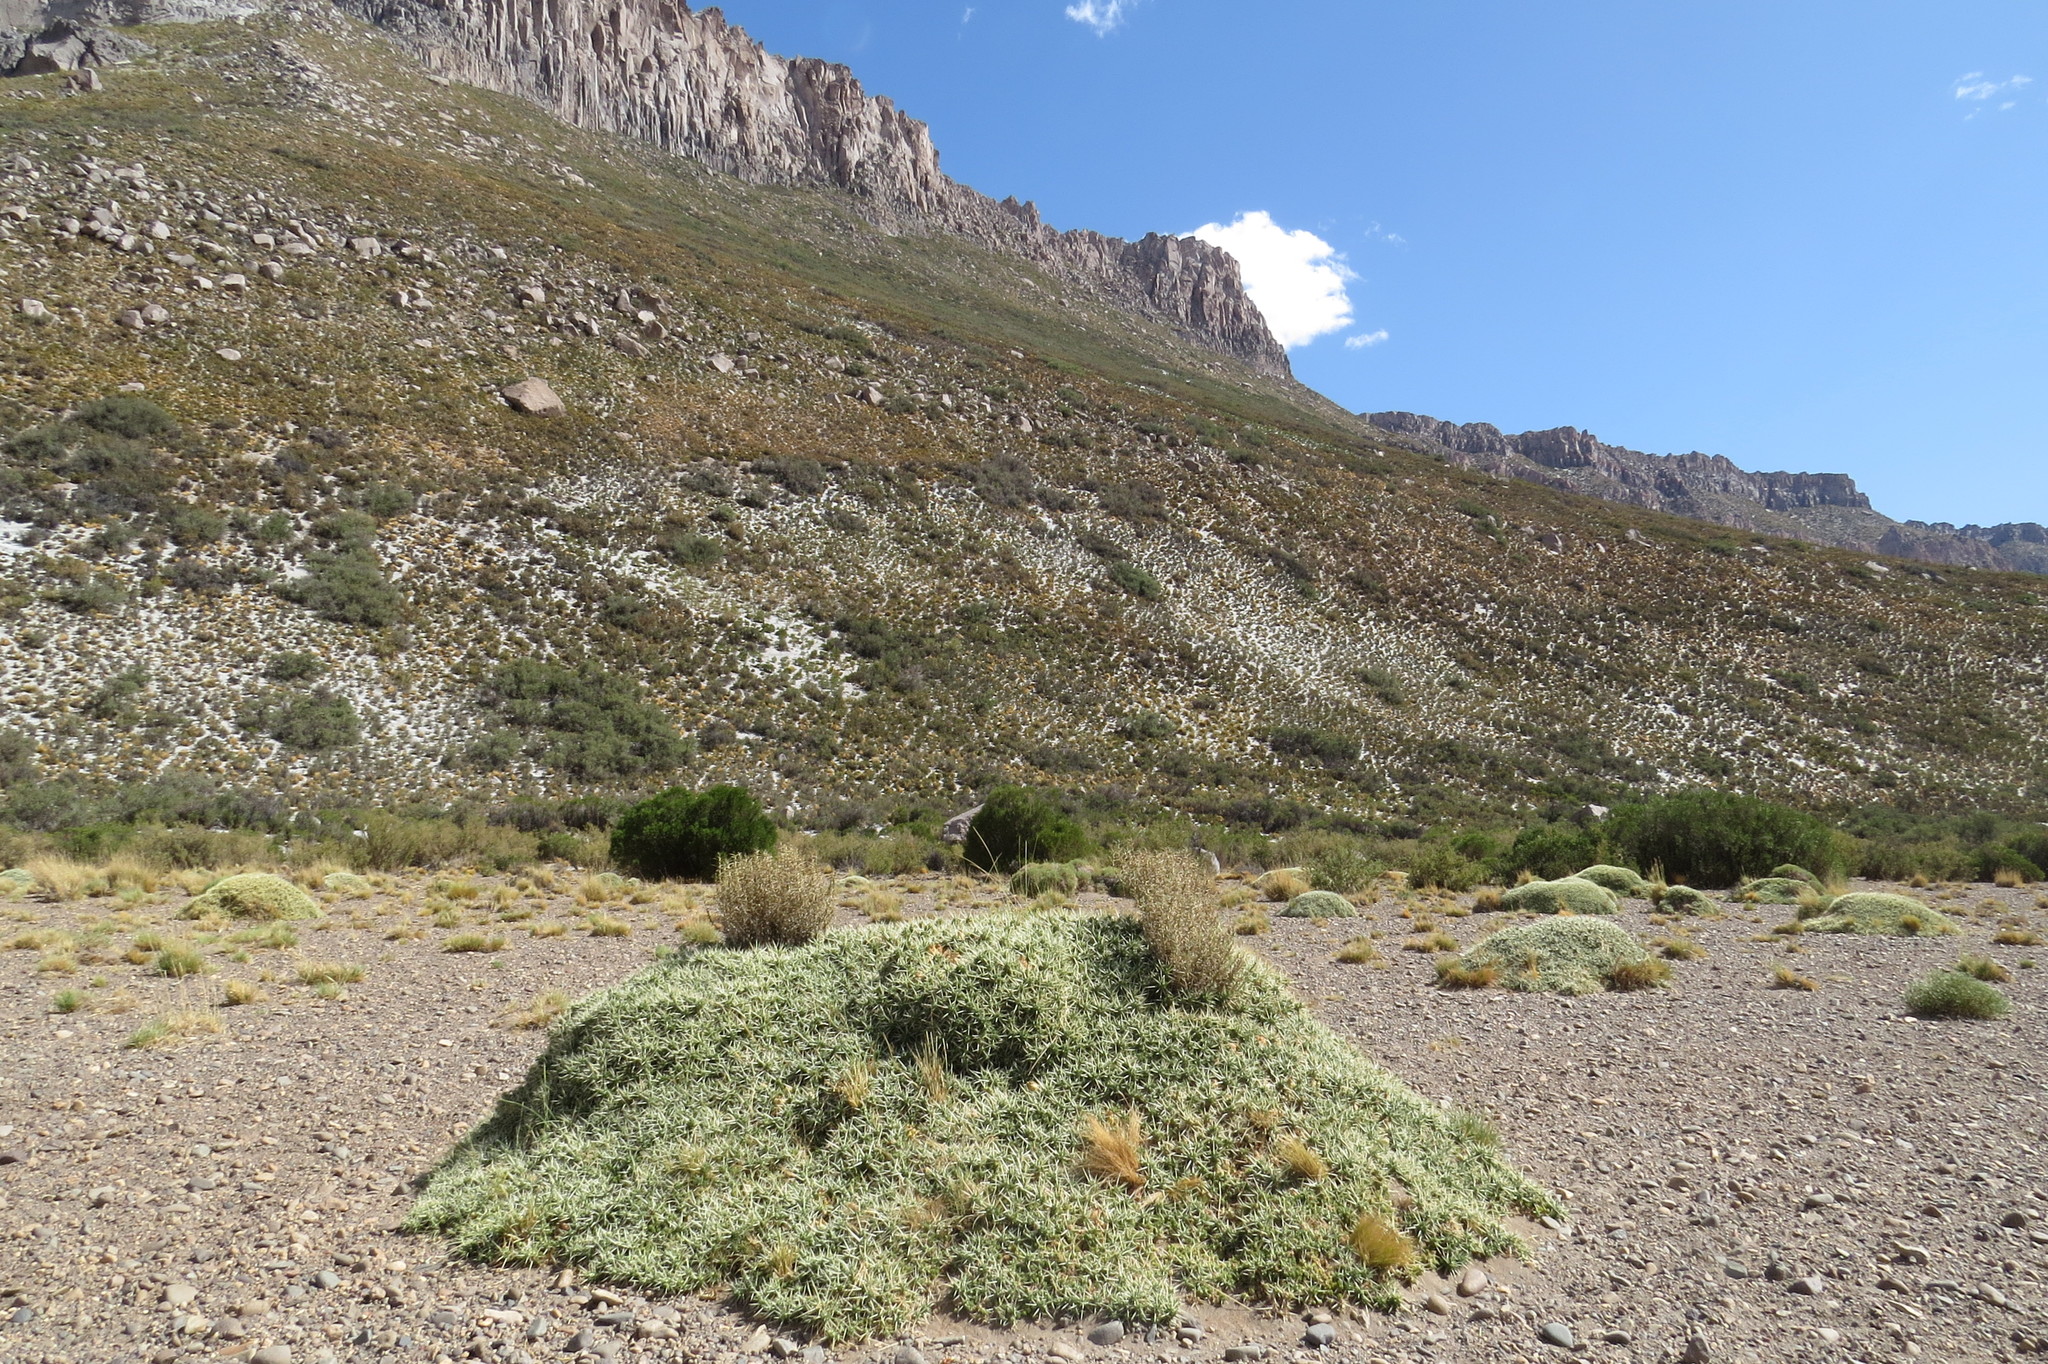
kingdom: Plantae
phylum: Tracheophyta
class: Magnoliopsida
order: Caryophyllales
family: Cactaceae
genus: Maihuenia
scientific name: Maihuenia patagonica
